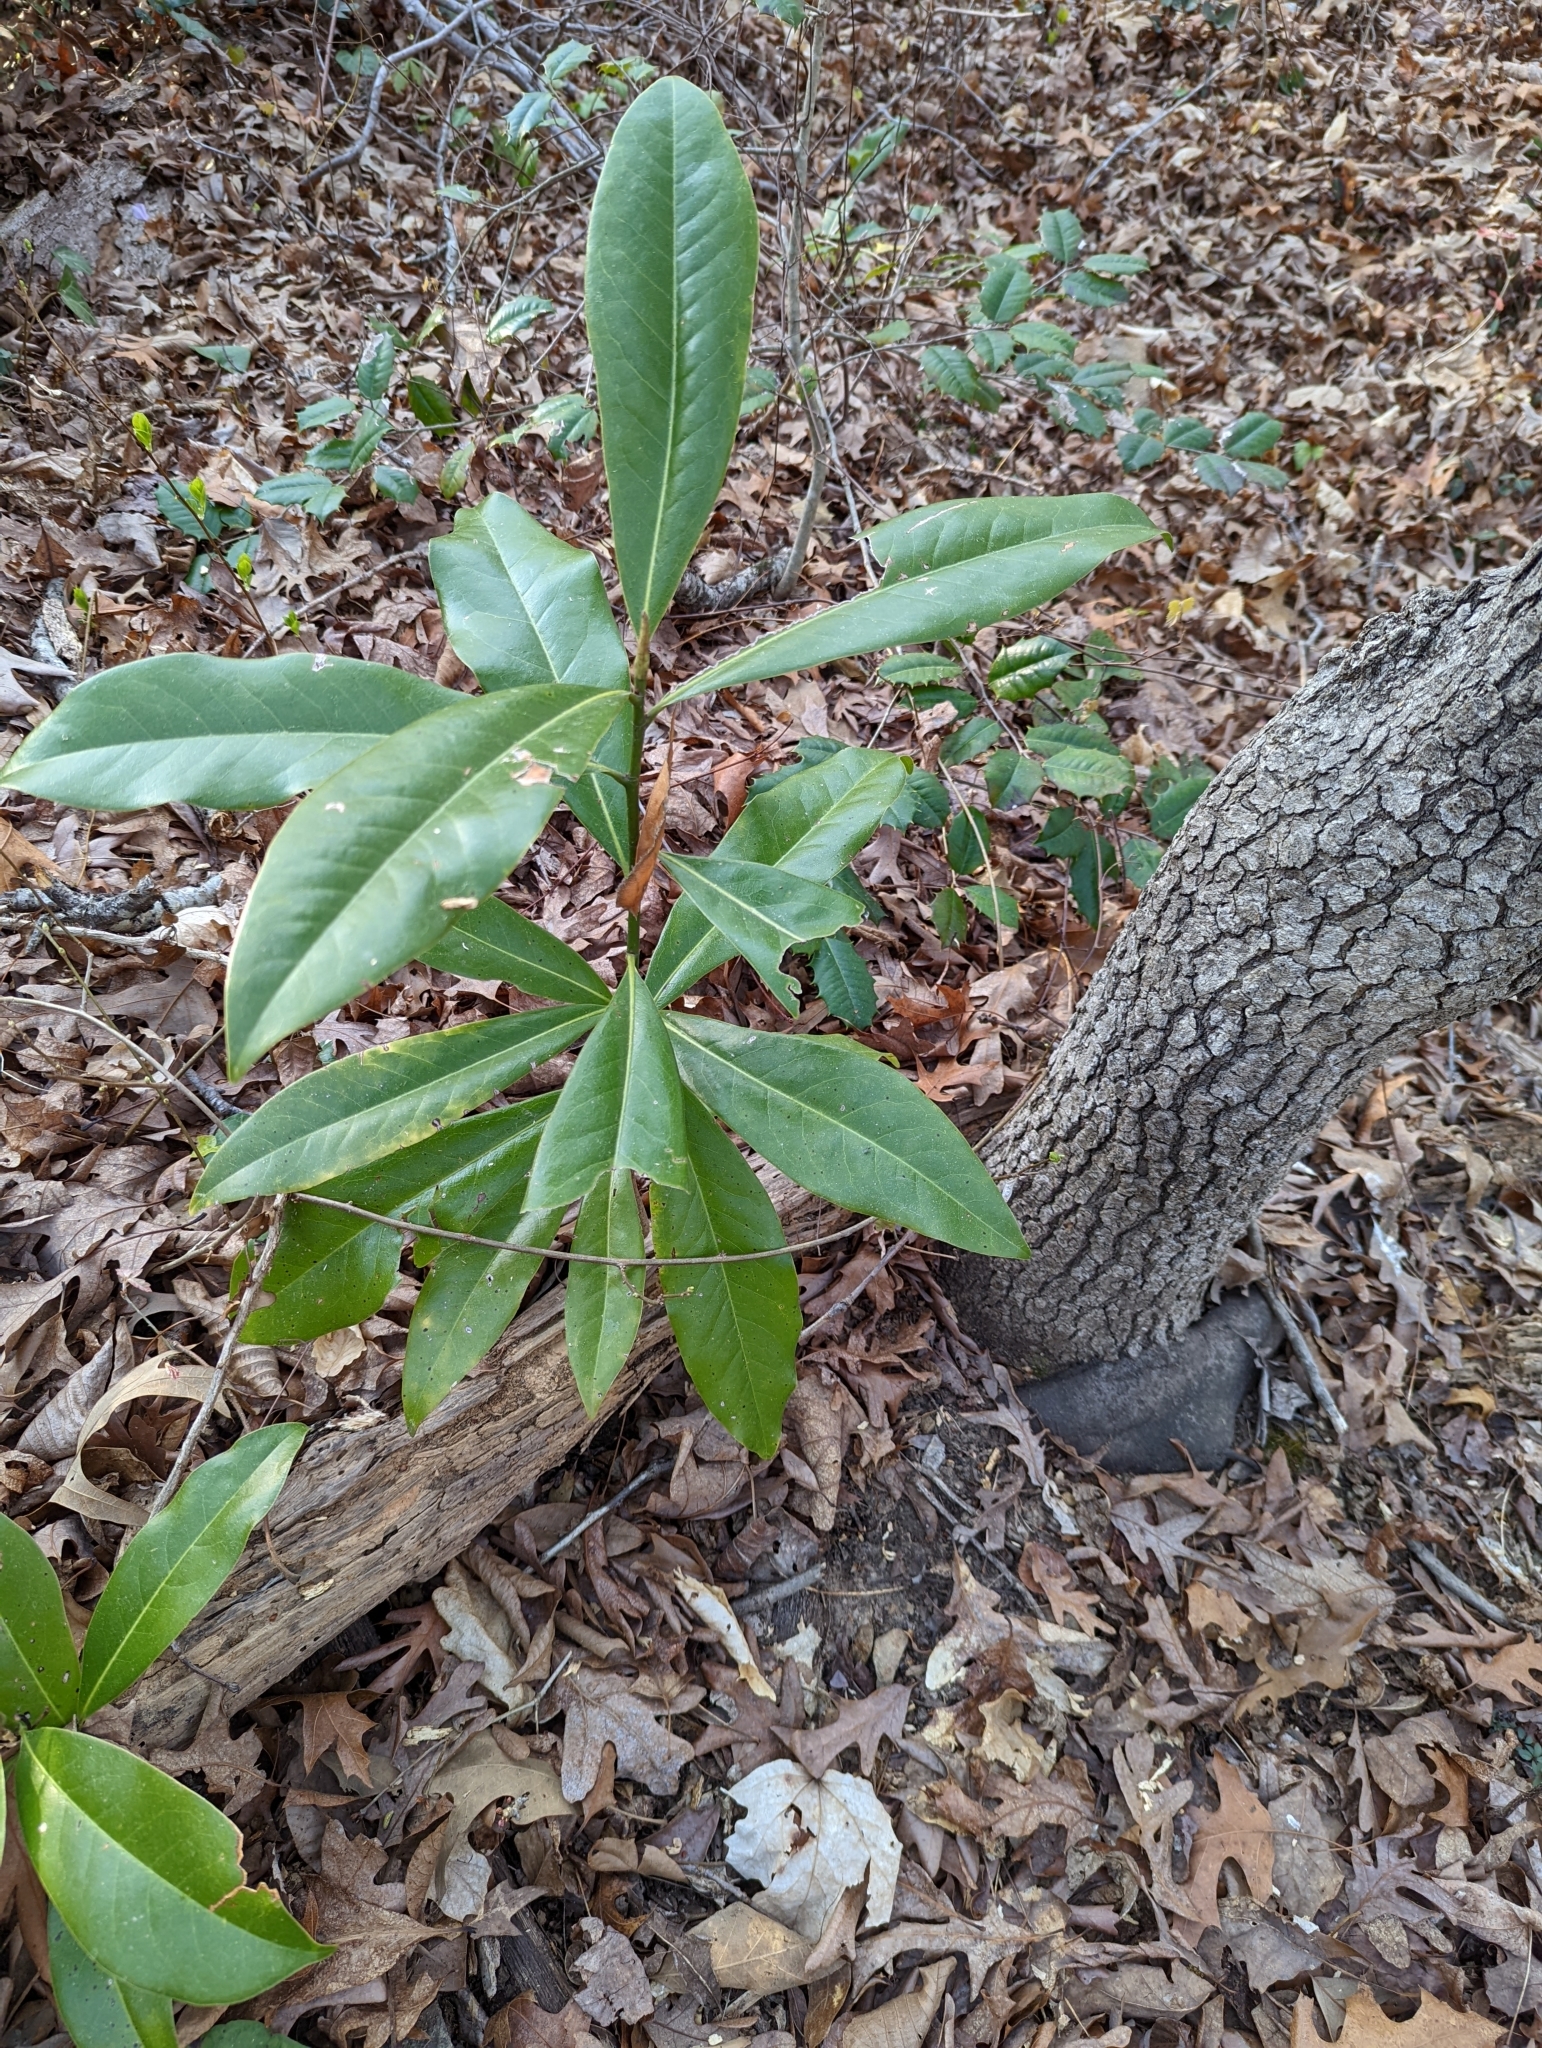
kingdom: Plantae
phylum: Tracheophyta
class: Magnoliopsida
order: Magnoliales
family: Magnoliaceae
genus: Magnolia
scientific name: Magnolia grandiflora
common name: Southern magnolia
